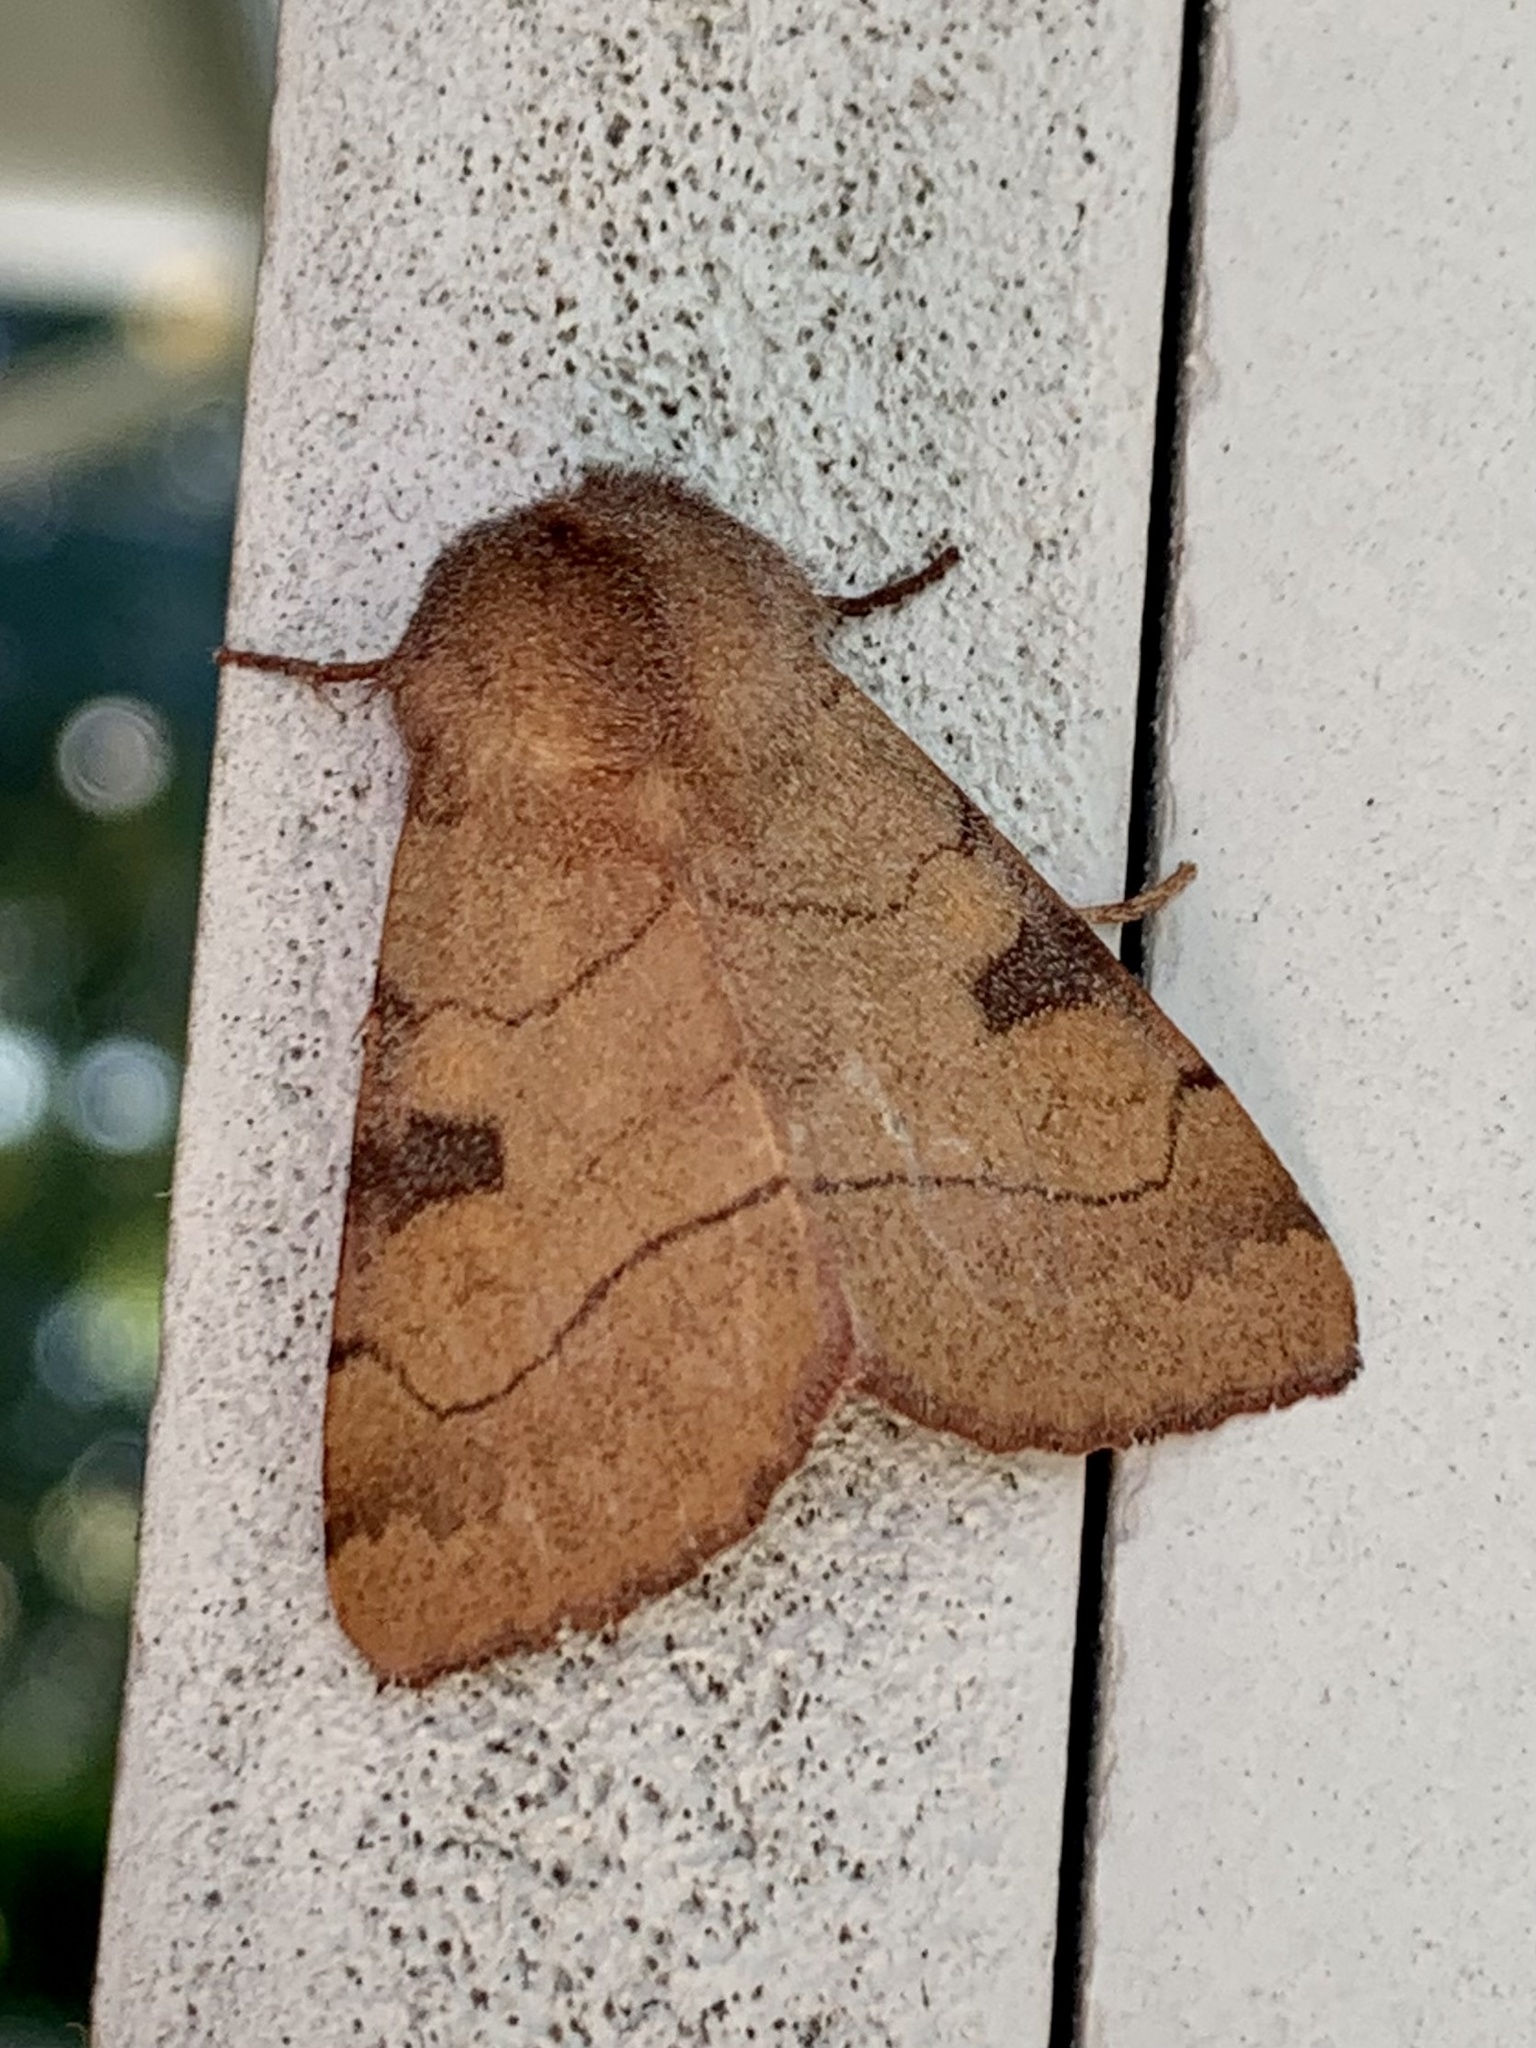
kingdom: Animalia
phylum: Arthropoda
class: Insecta
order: Lepidoptera
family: Noctuidae
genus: Choephora
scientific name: Choephora fungorum
